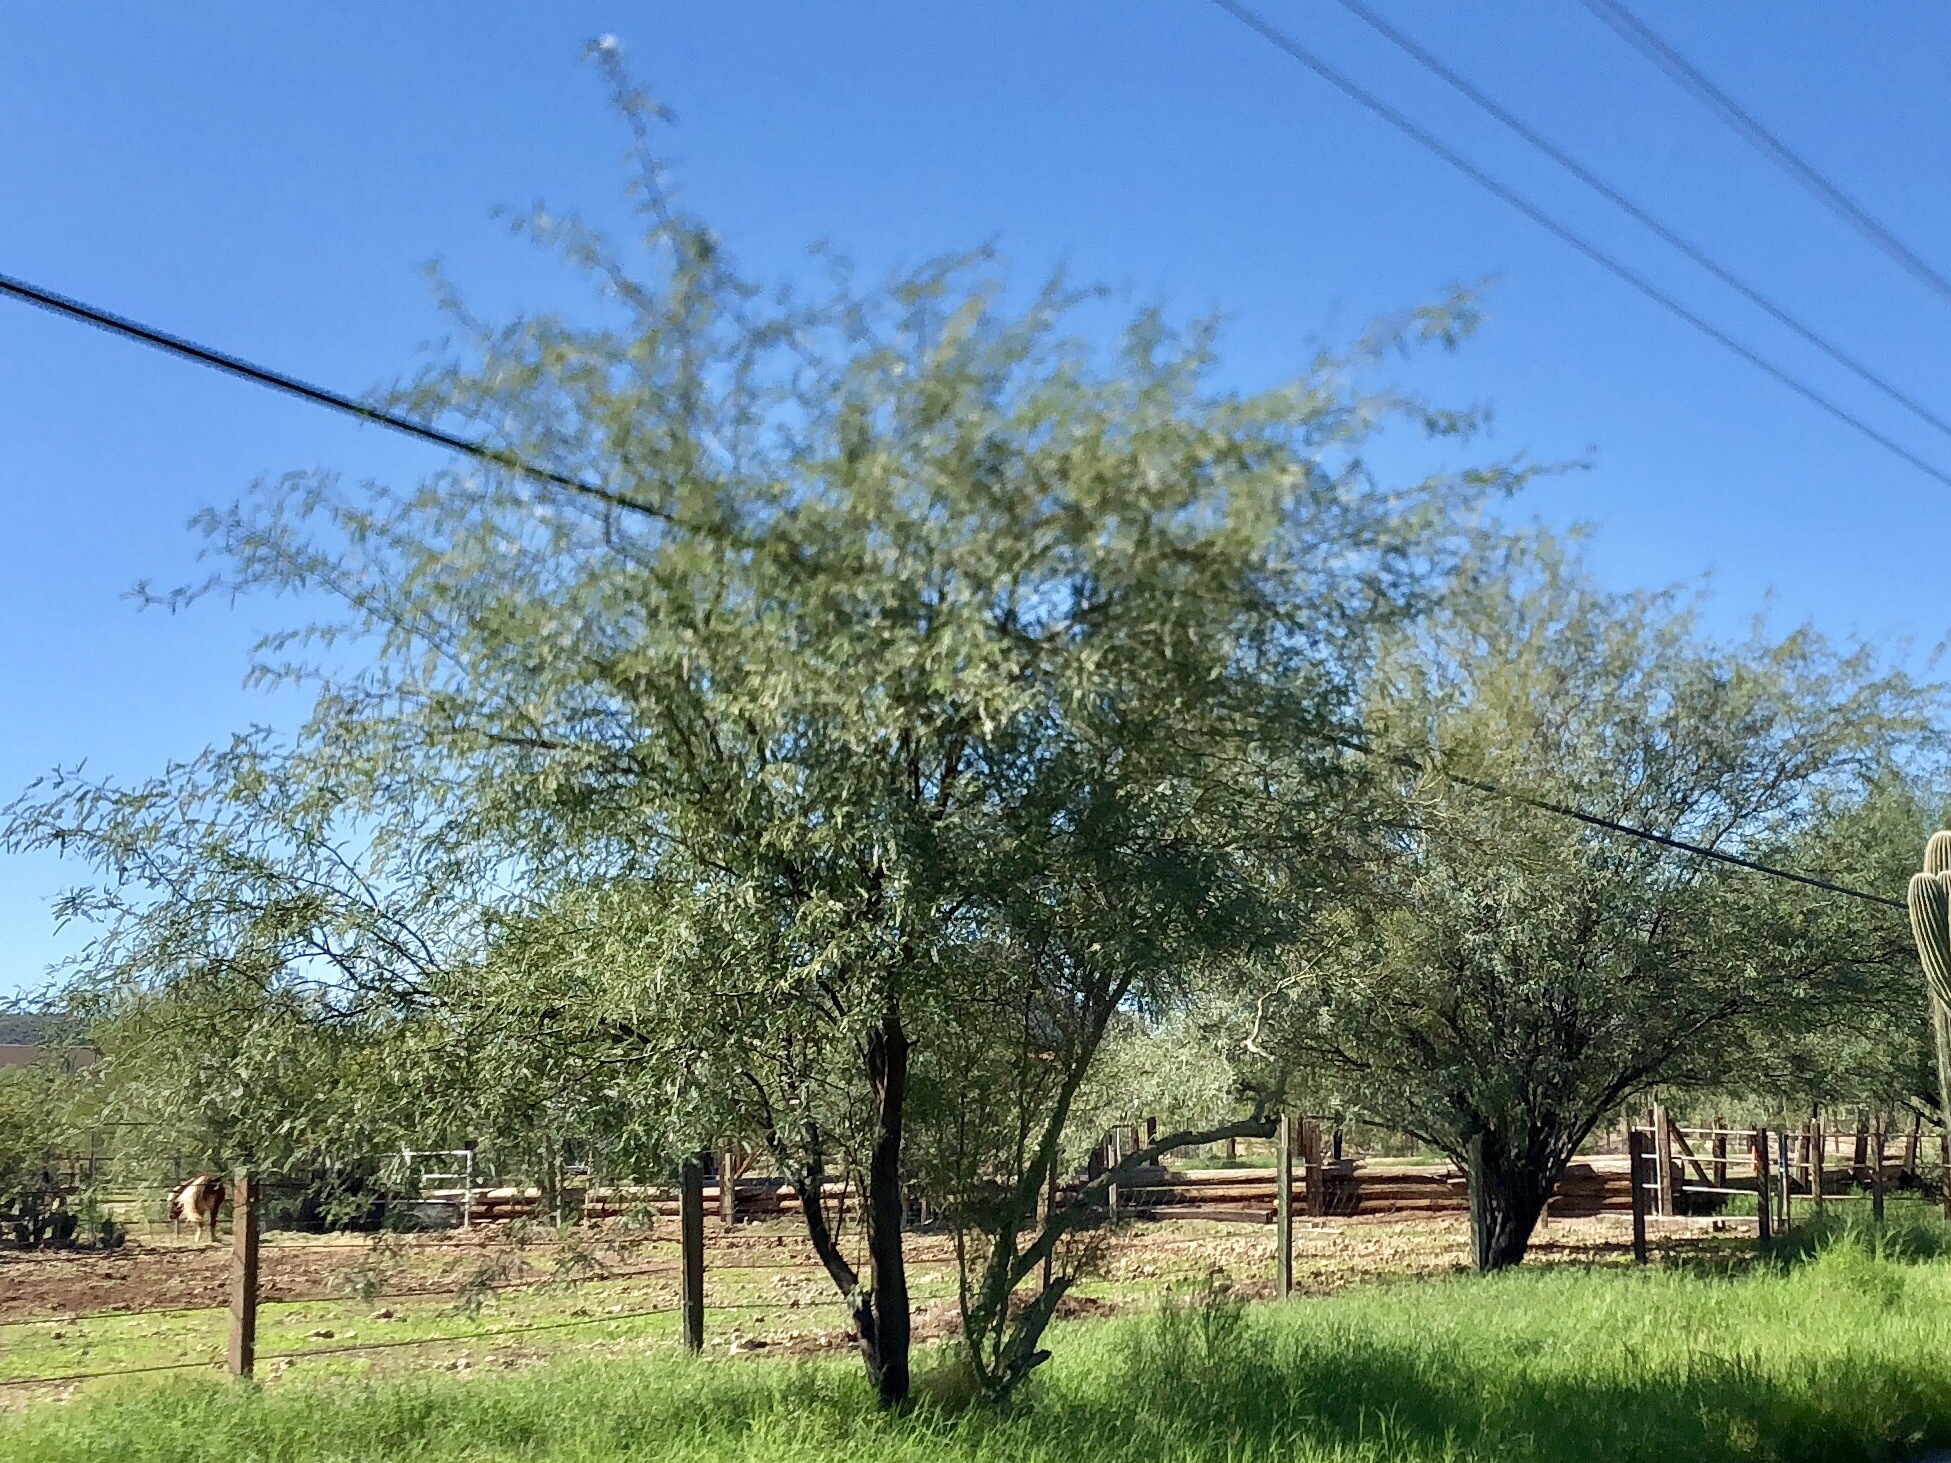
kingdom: Plantae
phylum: Tracheophyta
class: Magnoliopsida
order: Fabales
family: Fabaceae
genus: Prosopis
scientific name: Prosopis velutina
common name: Velvet mesquite
